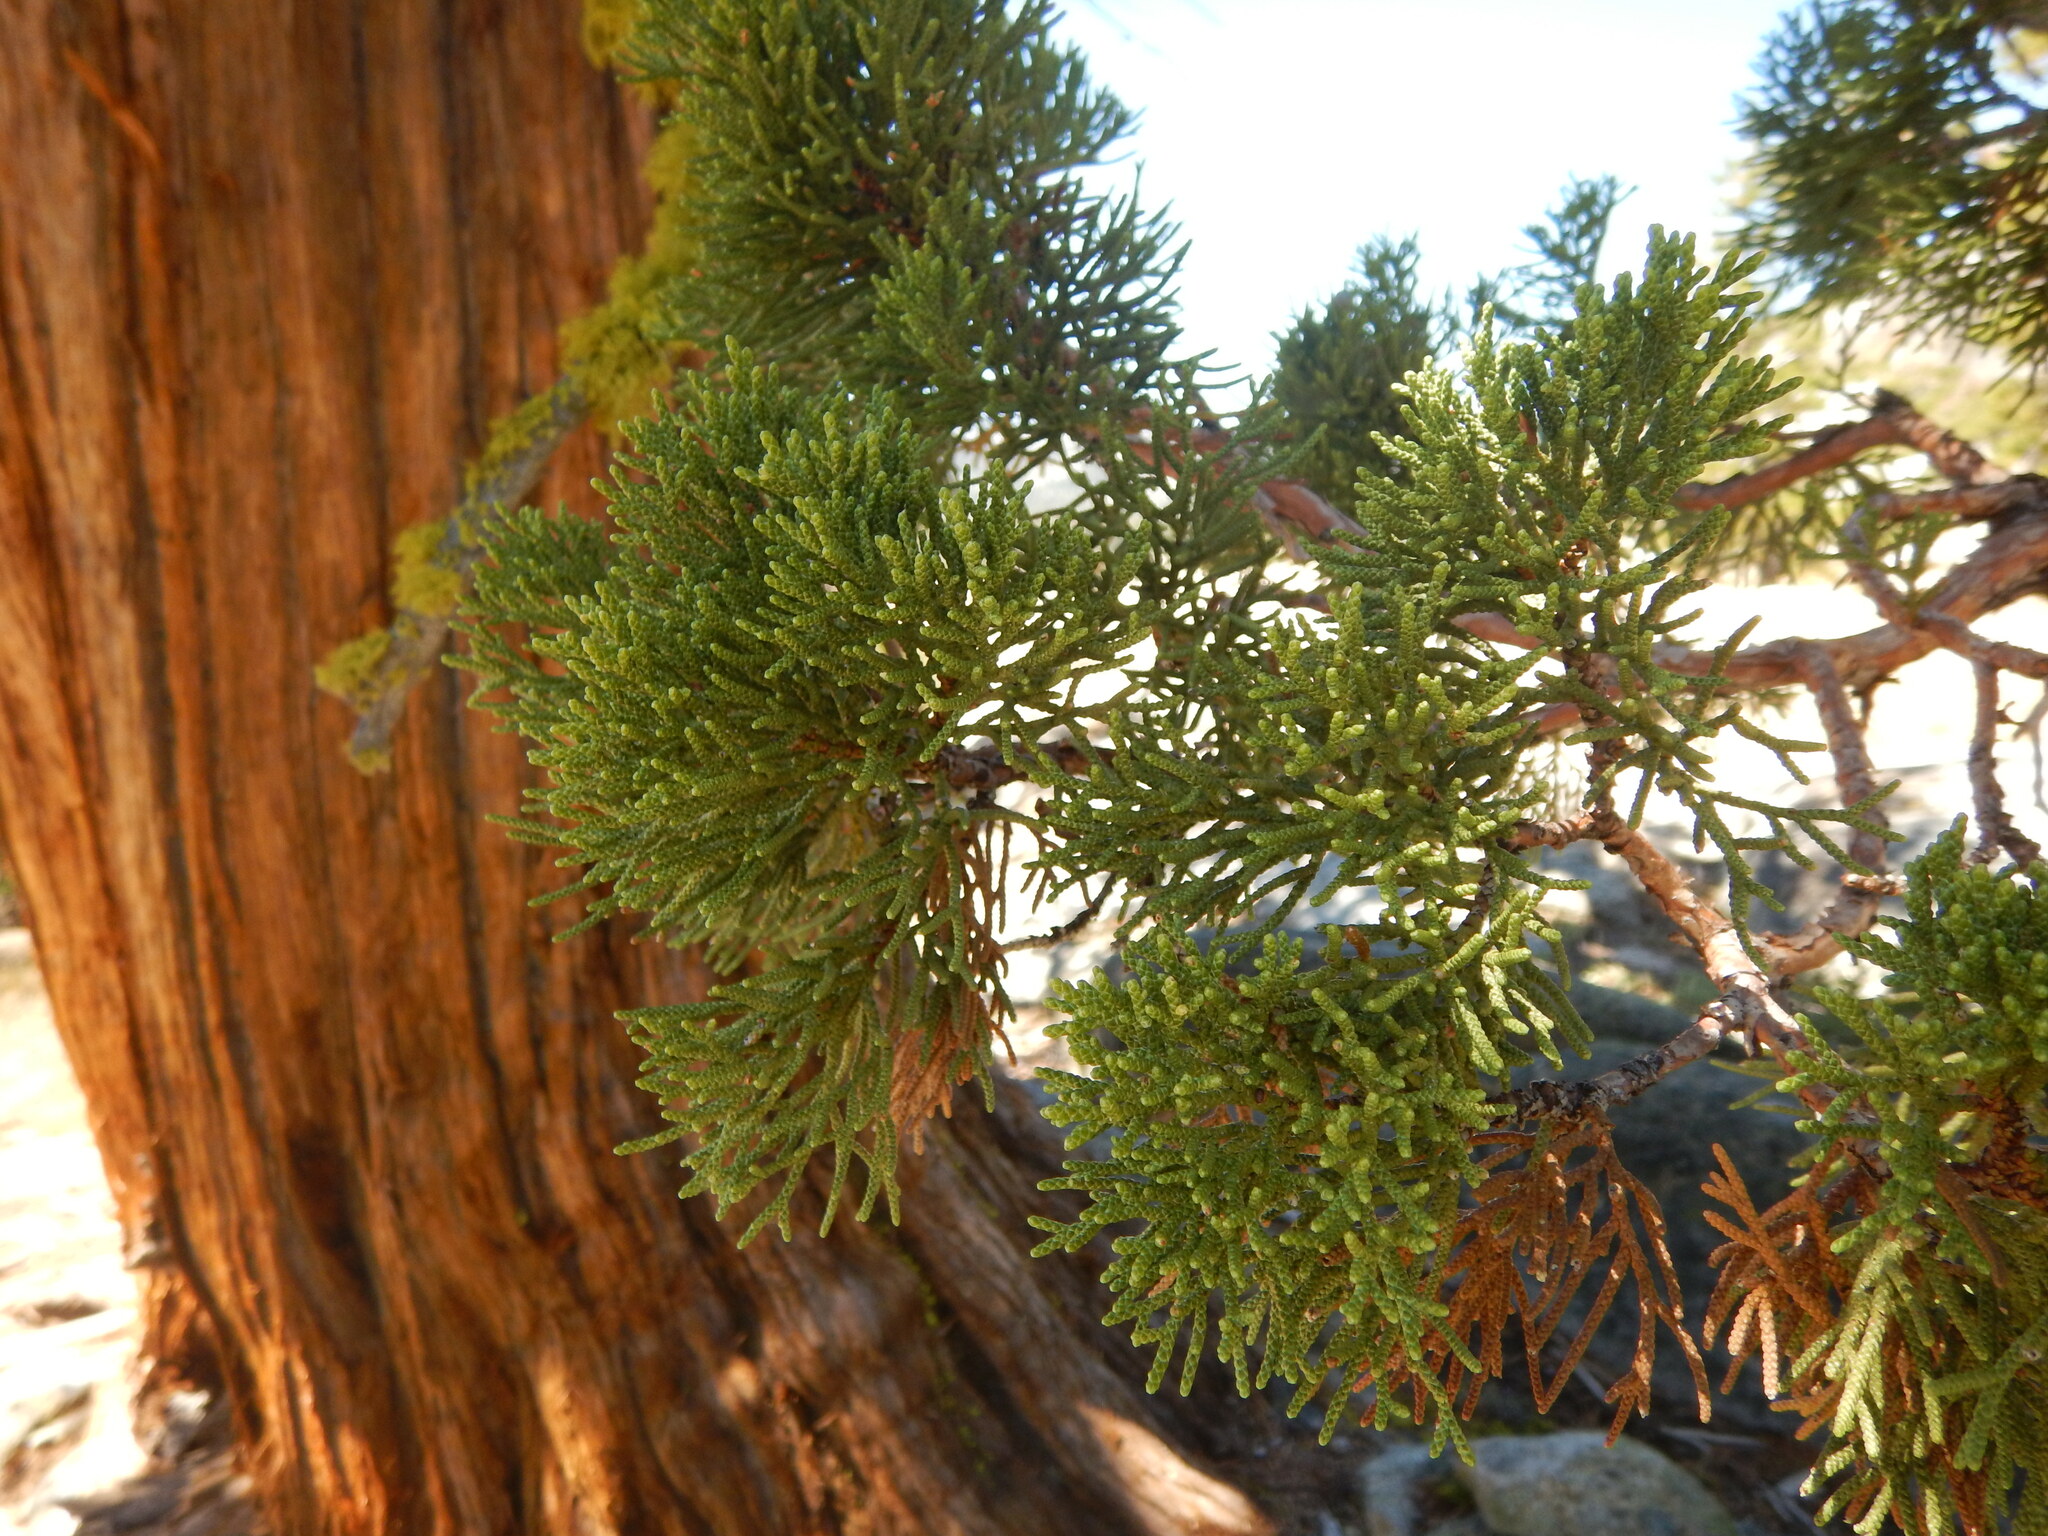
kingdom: Plantae
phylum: Tracheophyta
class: Pinopsida
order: Pinales
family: Cupressaceae
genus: Juniperus
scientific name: Juniperus occidentalis
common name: Western juniper
